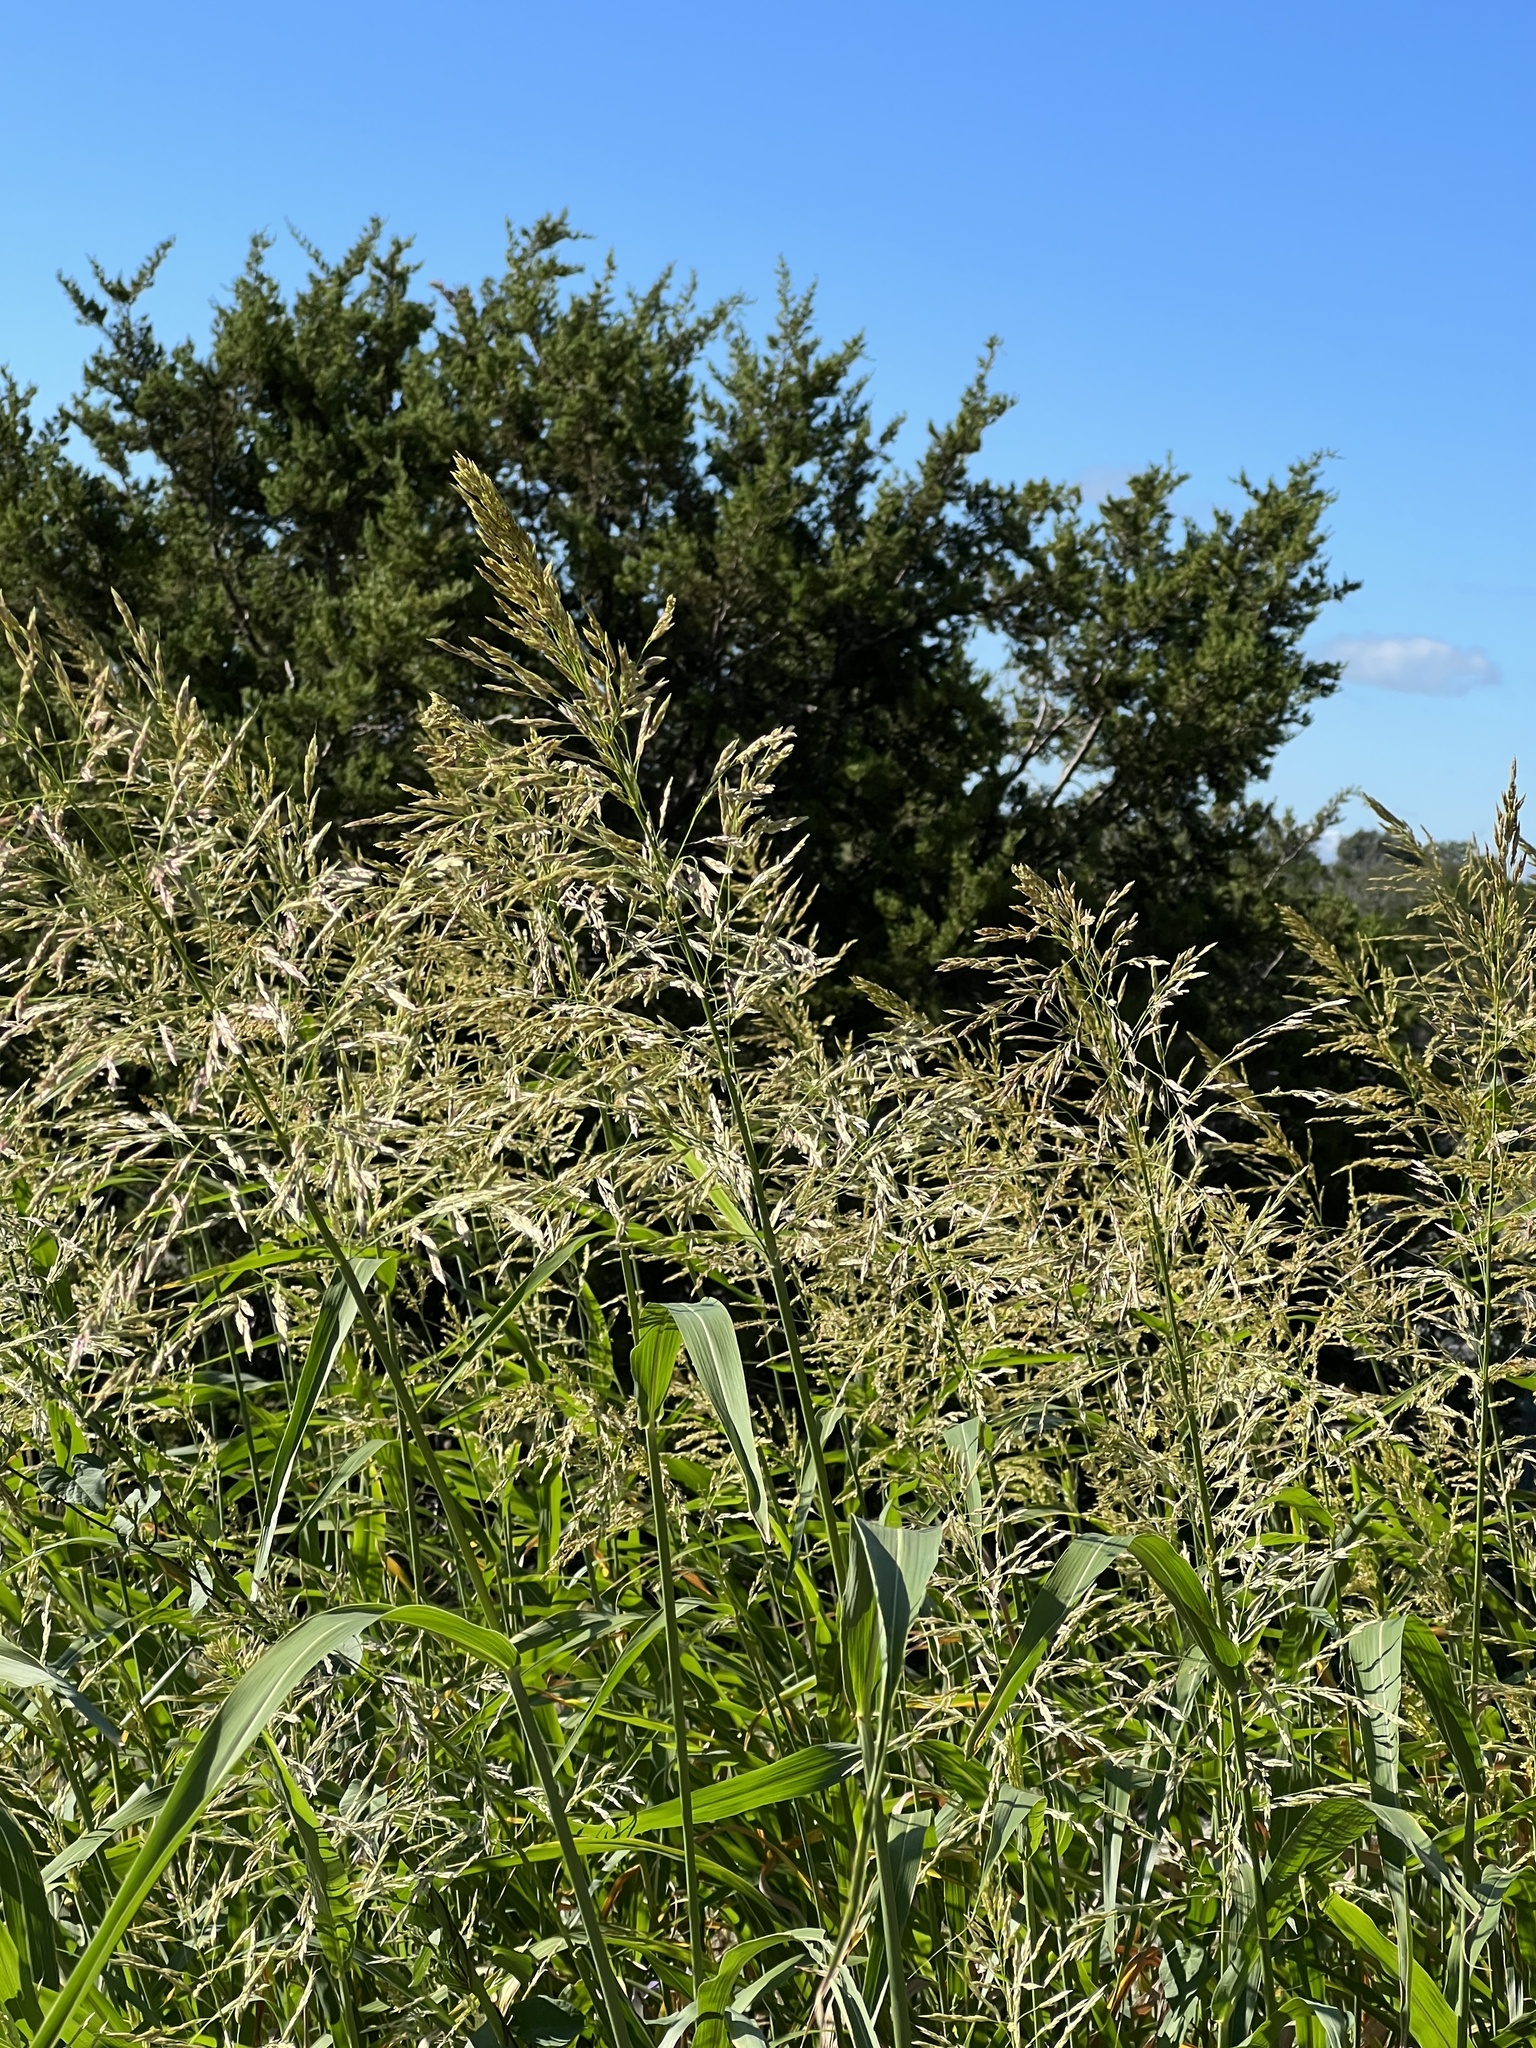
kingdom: Plantae
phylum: Tracheophyta
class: Liliopsida
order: Poales
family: Poaceae
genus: Sorghum
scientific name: Sorghum halepense
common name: Johnson-grass
